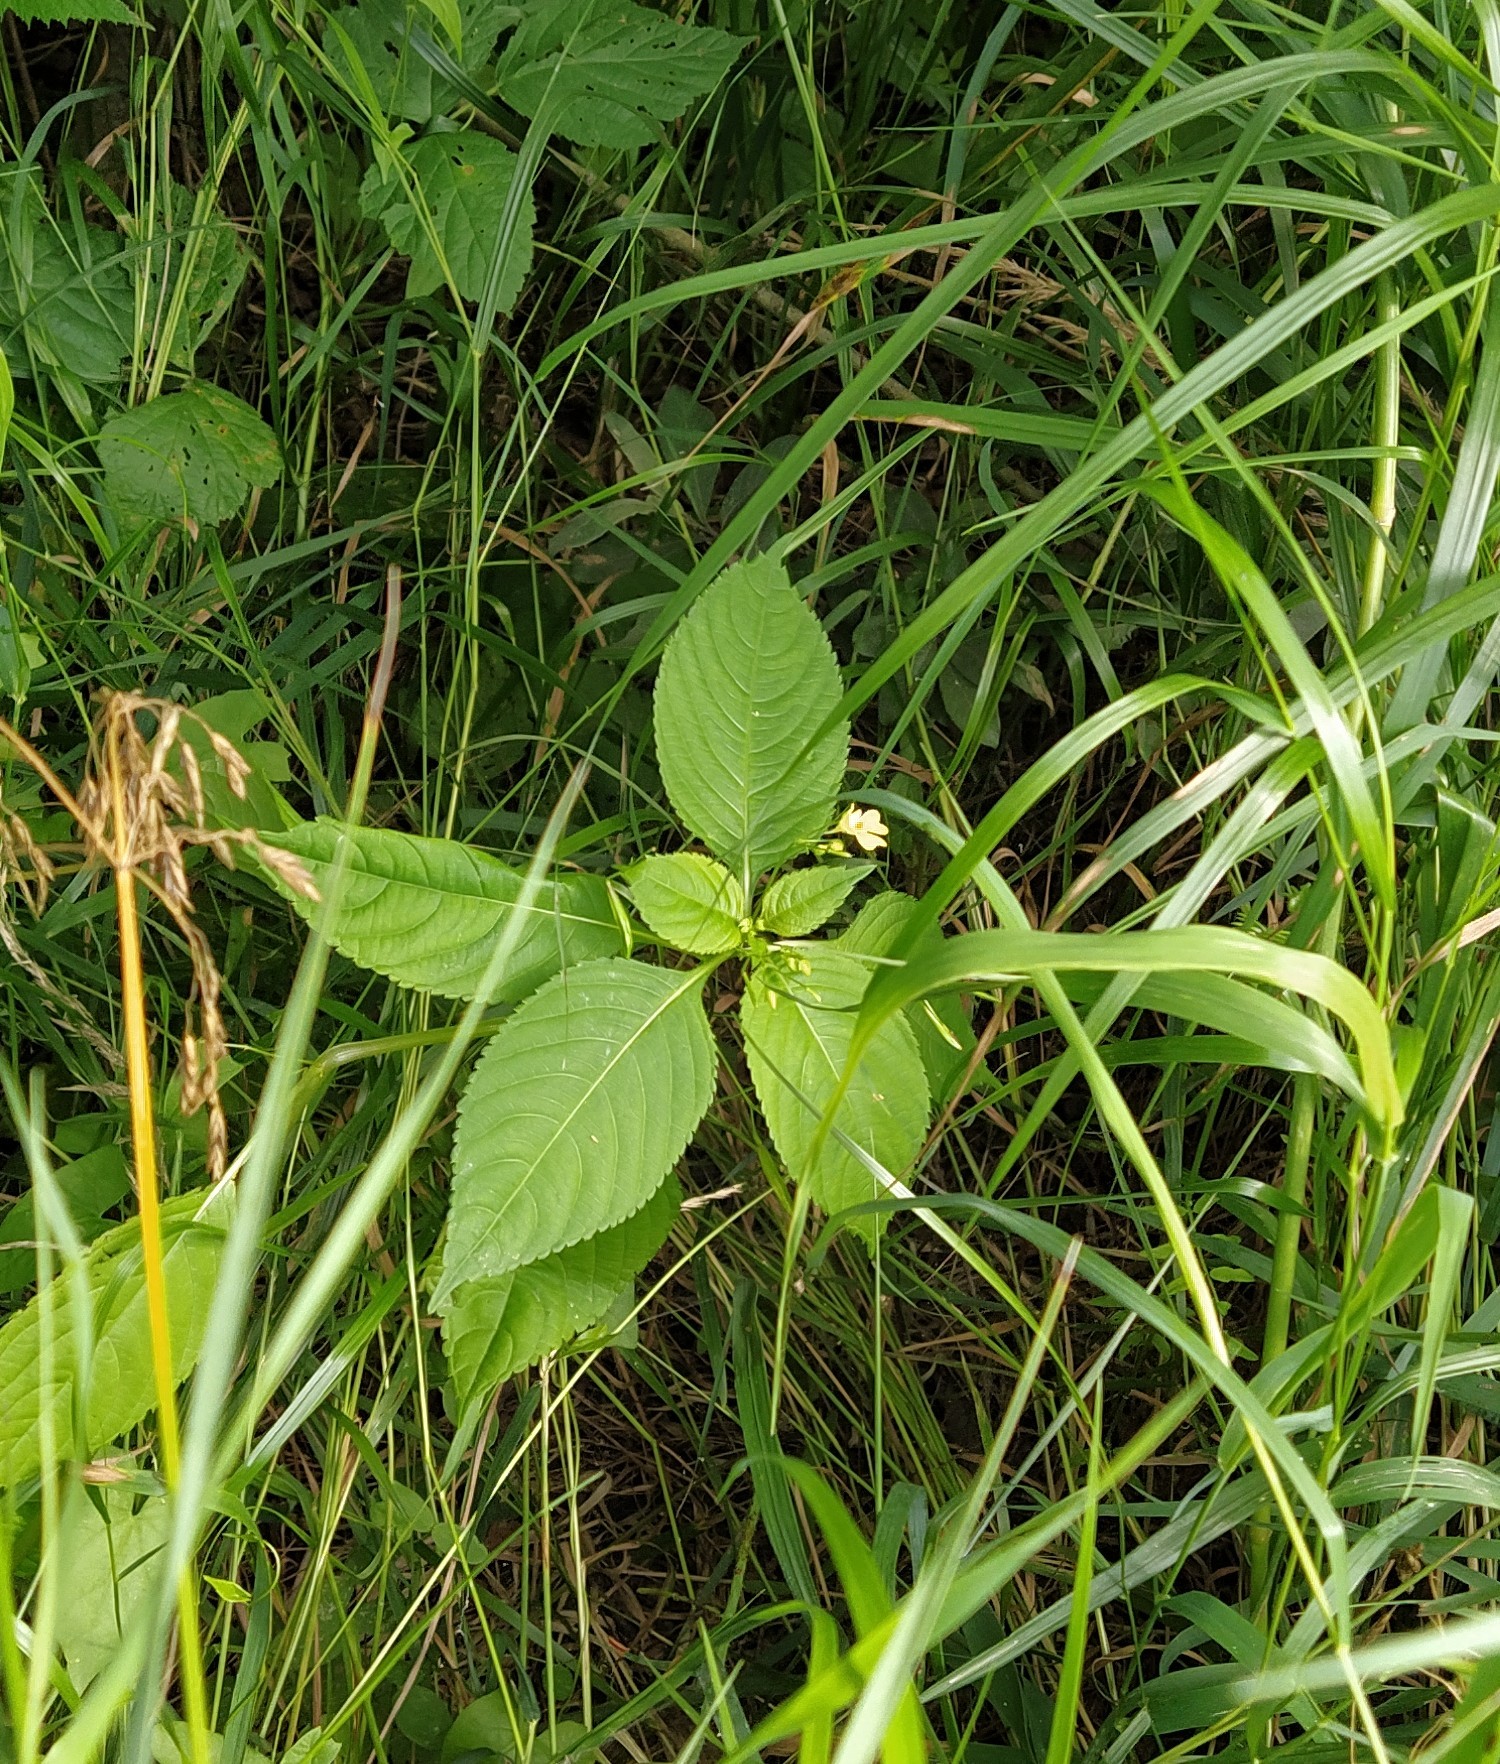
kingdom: Plantae
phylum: Tracheophyta
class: Magnoliopsida
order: Ericales
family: Balsaminaceae
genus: Impatiens
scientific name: Impatiens parviflora
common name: Small balsam
